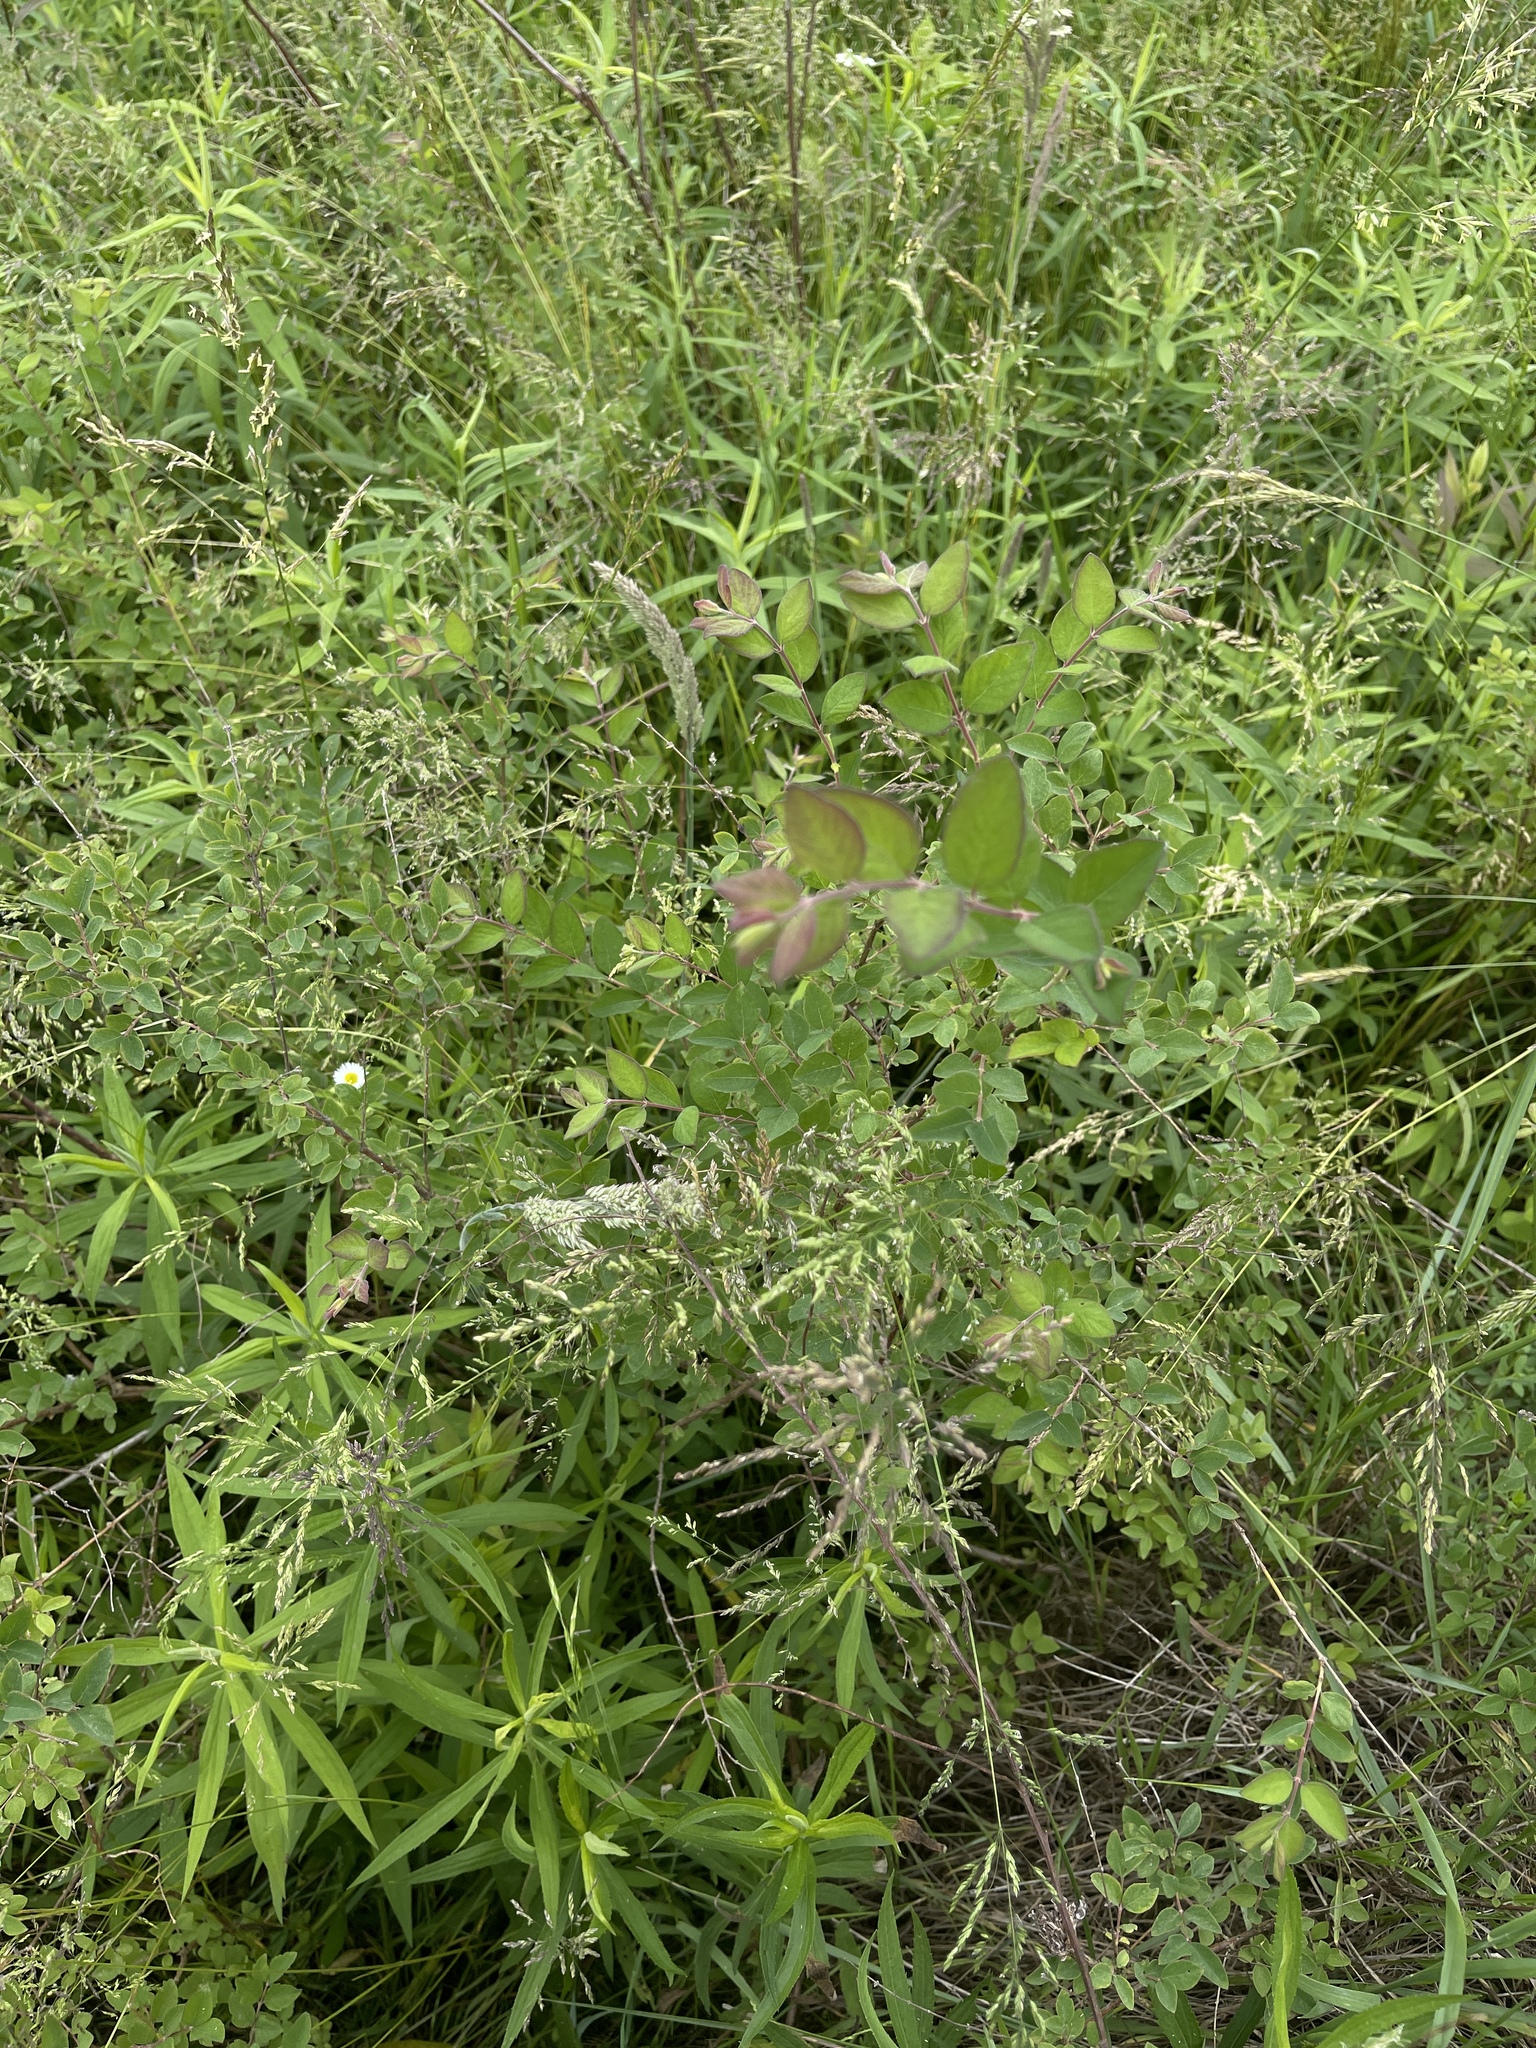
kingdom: Plantae
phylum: Tracheophyta
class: Magnoliopsida
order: Dipsacales
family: Caprifoliaceae
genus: Symphoricarpos
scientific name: Symphoricarpos orbiculatus
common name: Coralberry
